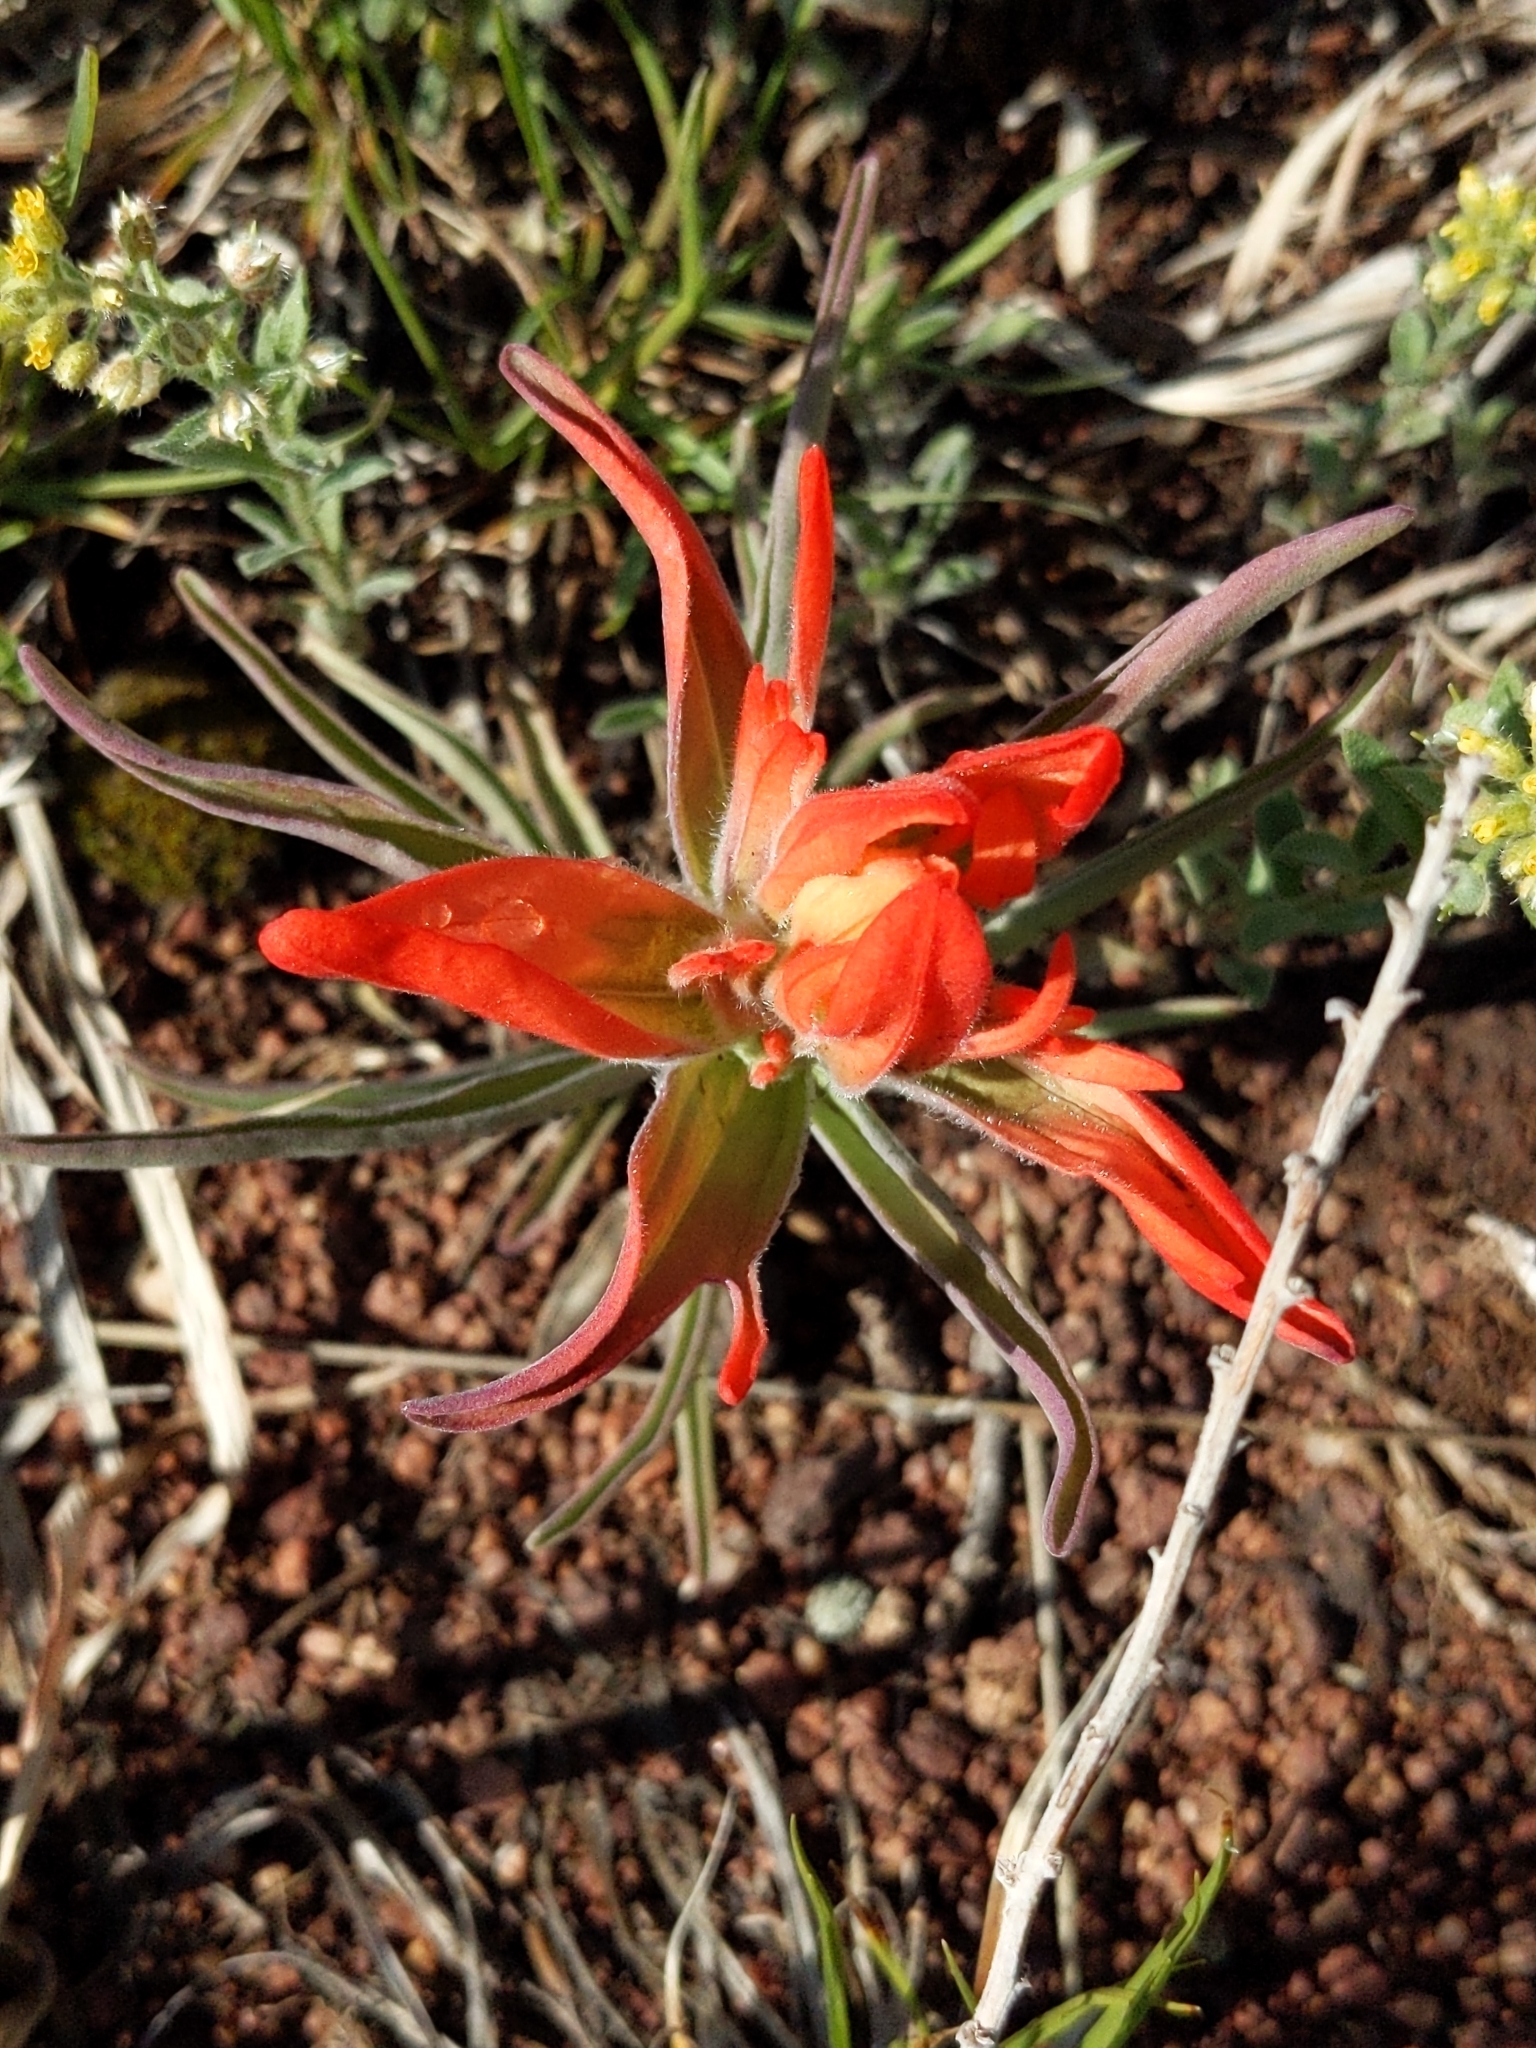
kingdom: Plantae
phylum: Tracheophyta
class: Magnoliopsida
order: Lamiales
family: Orobanchaceae
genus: Castilleja
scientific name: Castilleja integra
